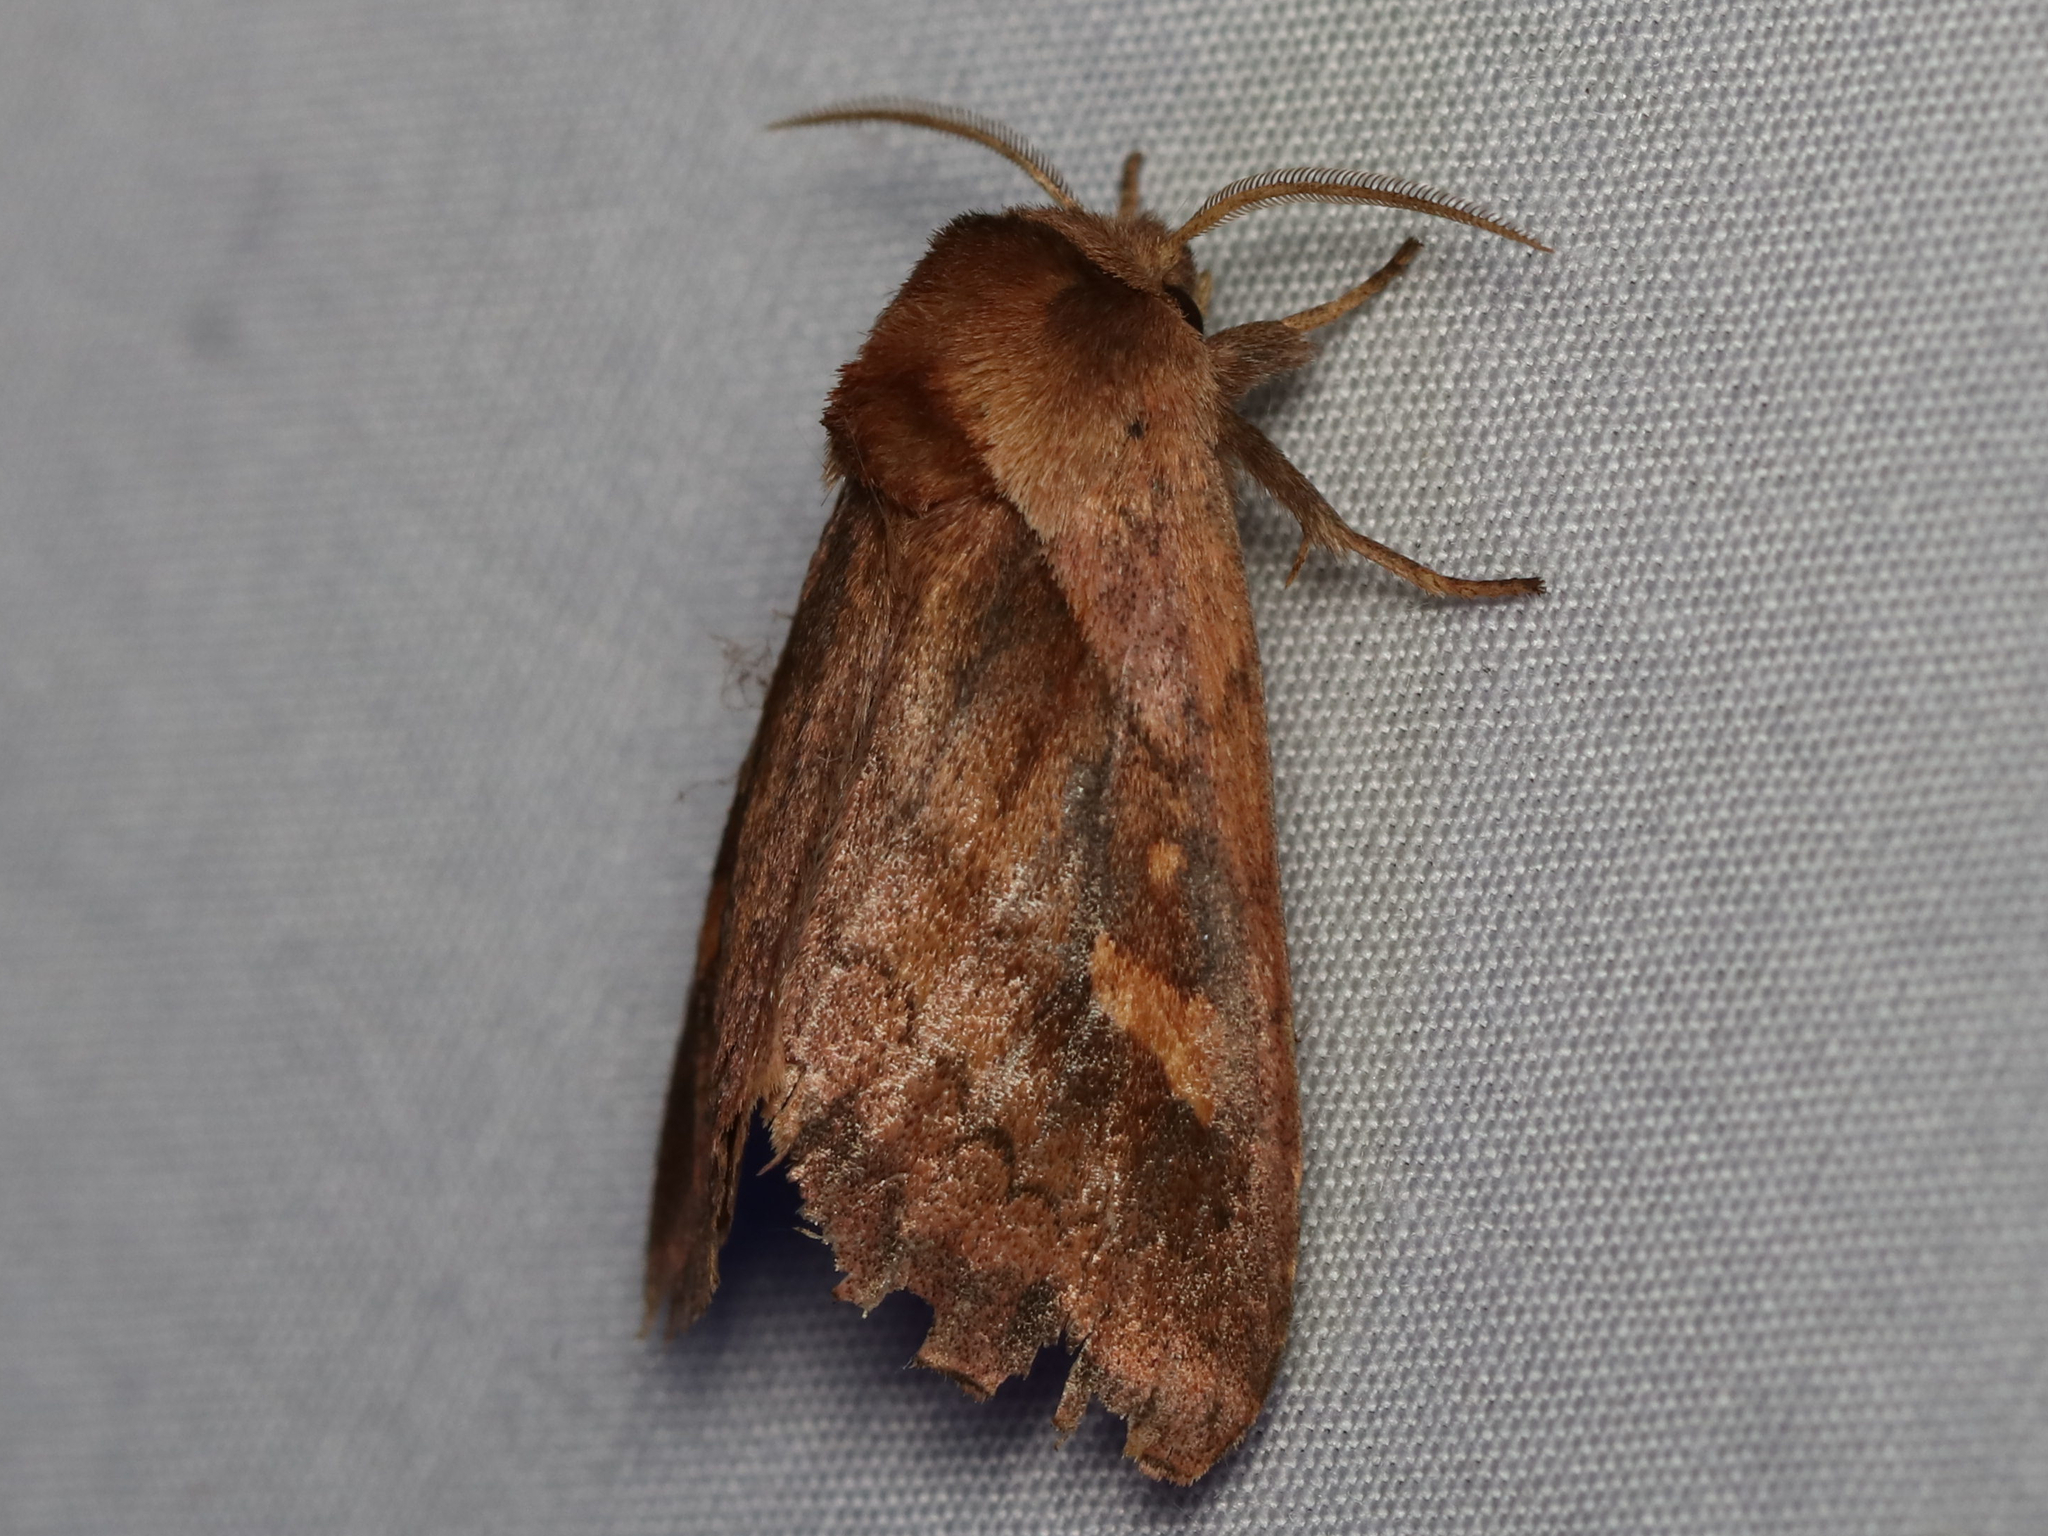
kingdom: Animalia
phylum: Arthropoda
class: Insecta
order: Lepidoptera
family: Noctuidae
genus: Bellura
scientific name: Bellura densa
